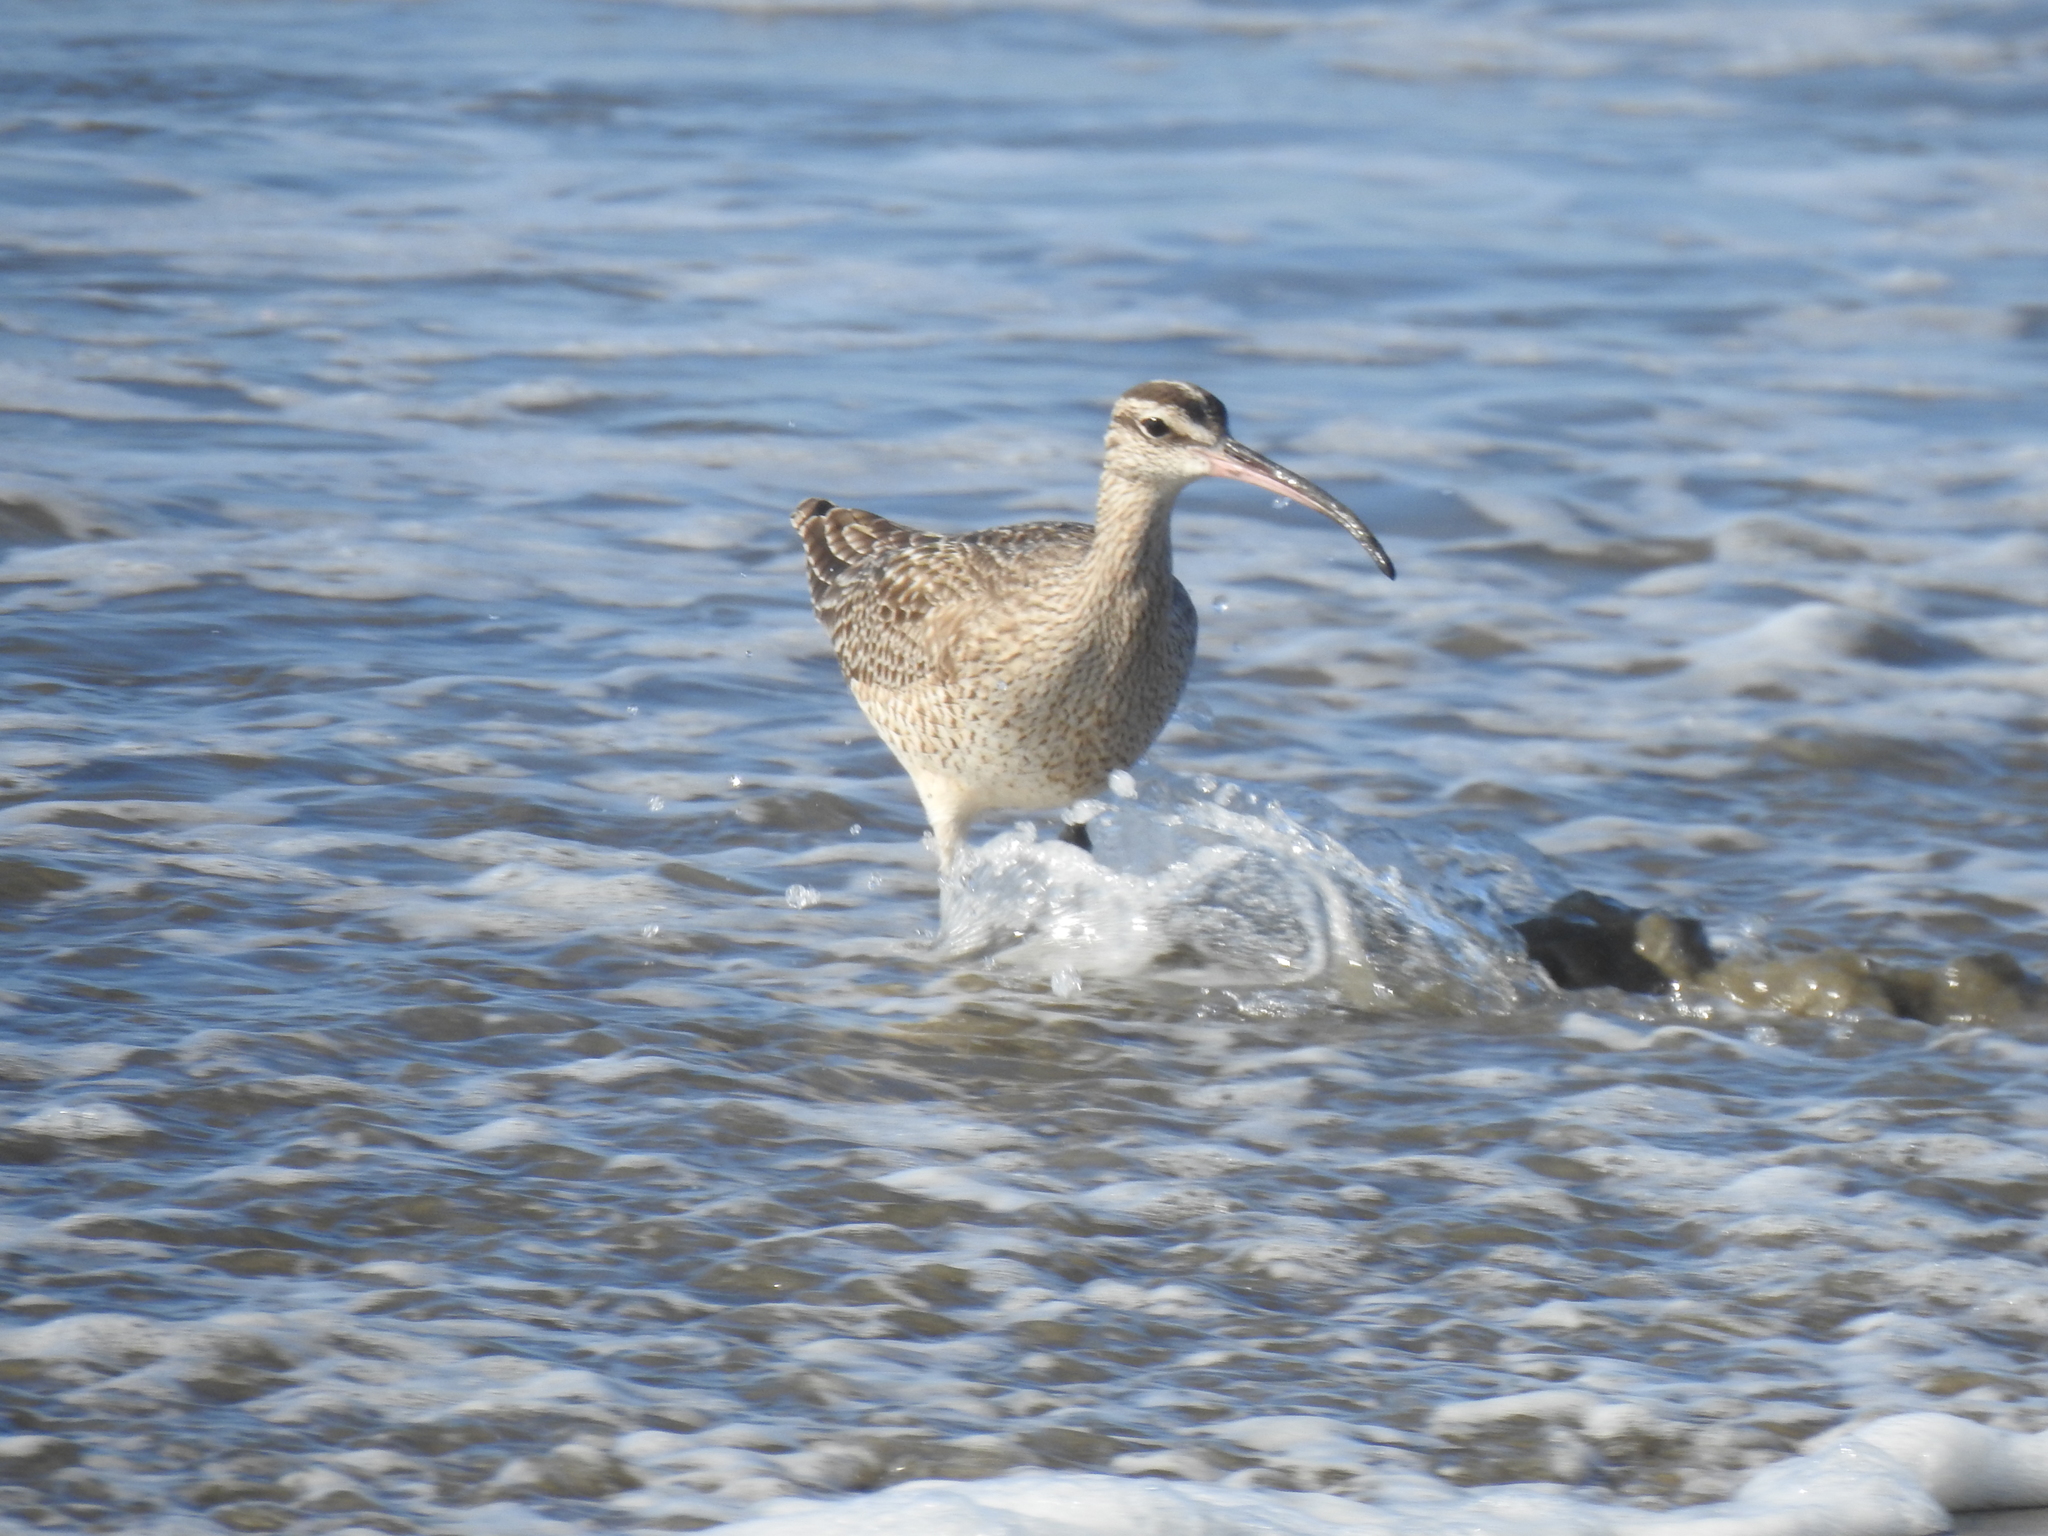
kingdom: Animalia
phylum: Chordata
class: Aves
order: Charadriiformes
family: Scolopacidae
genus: Numenius
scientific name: Numenius phaeopus
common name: Whimbrel
